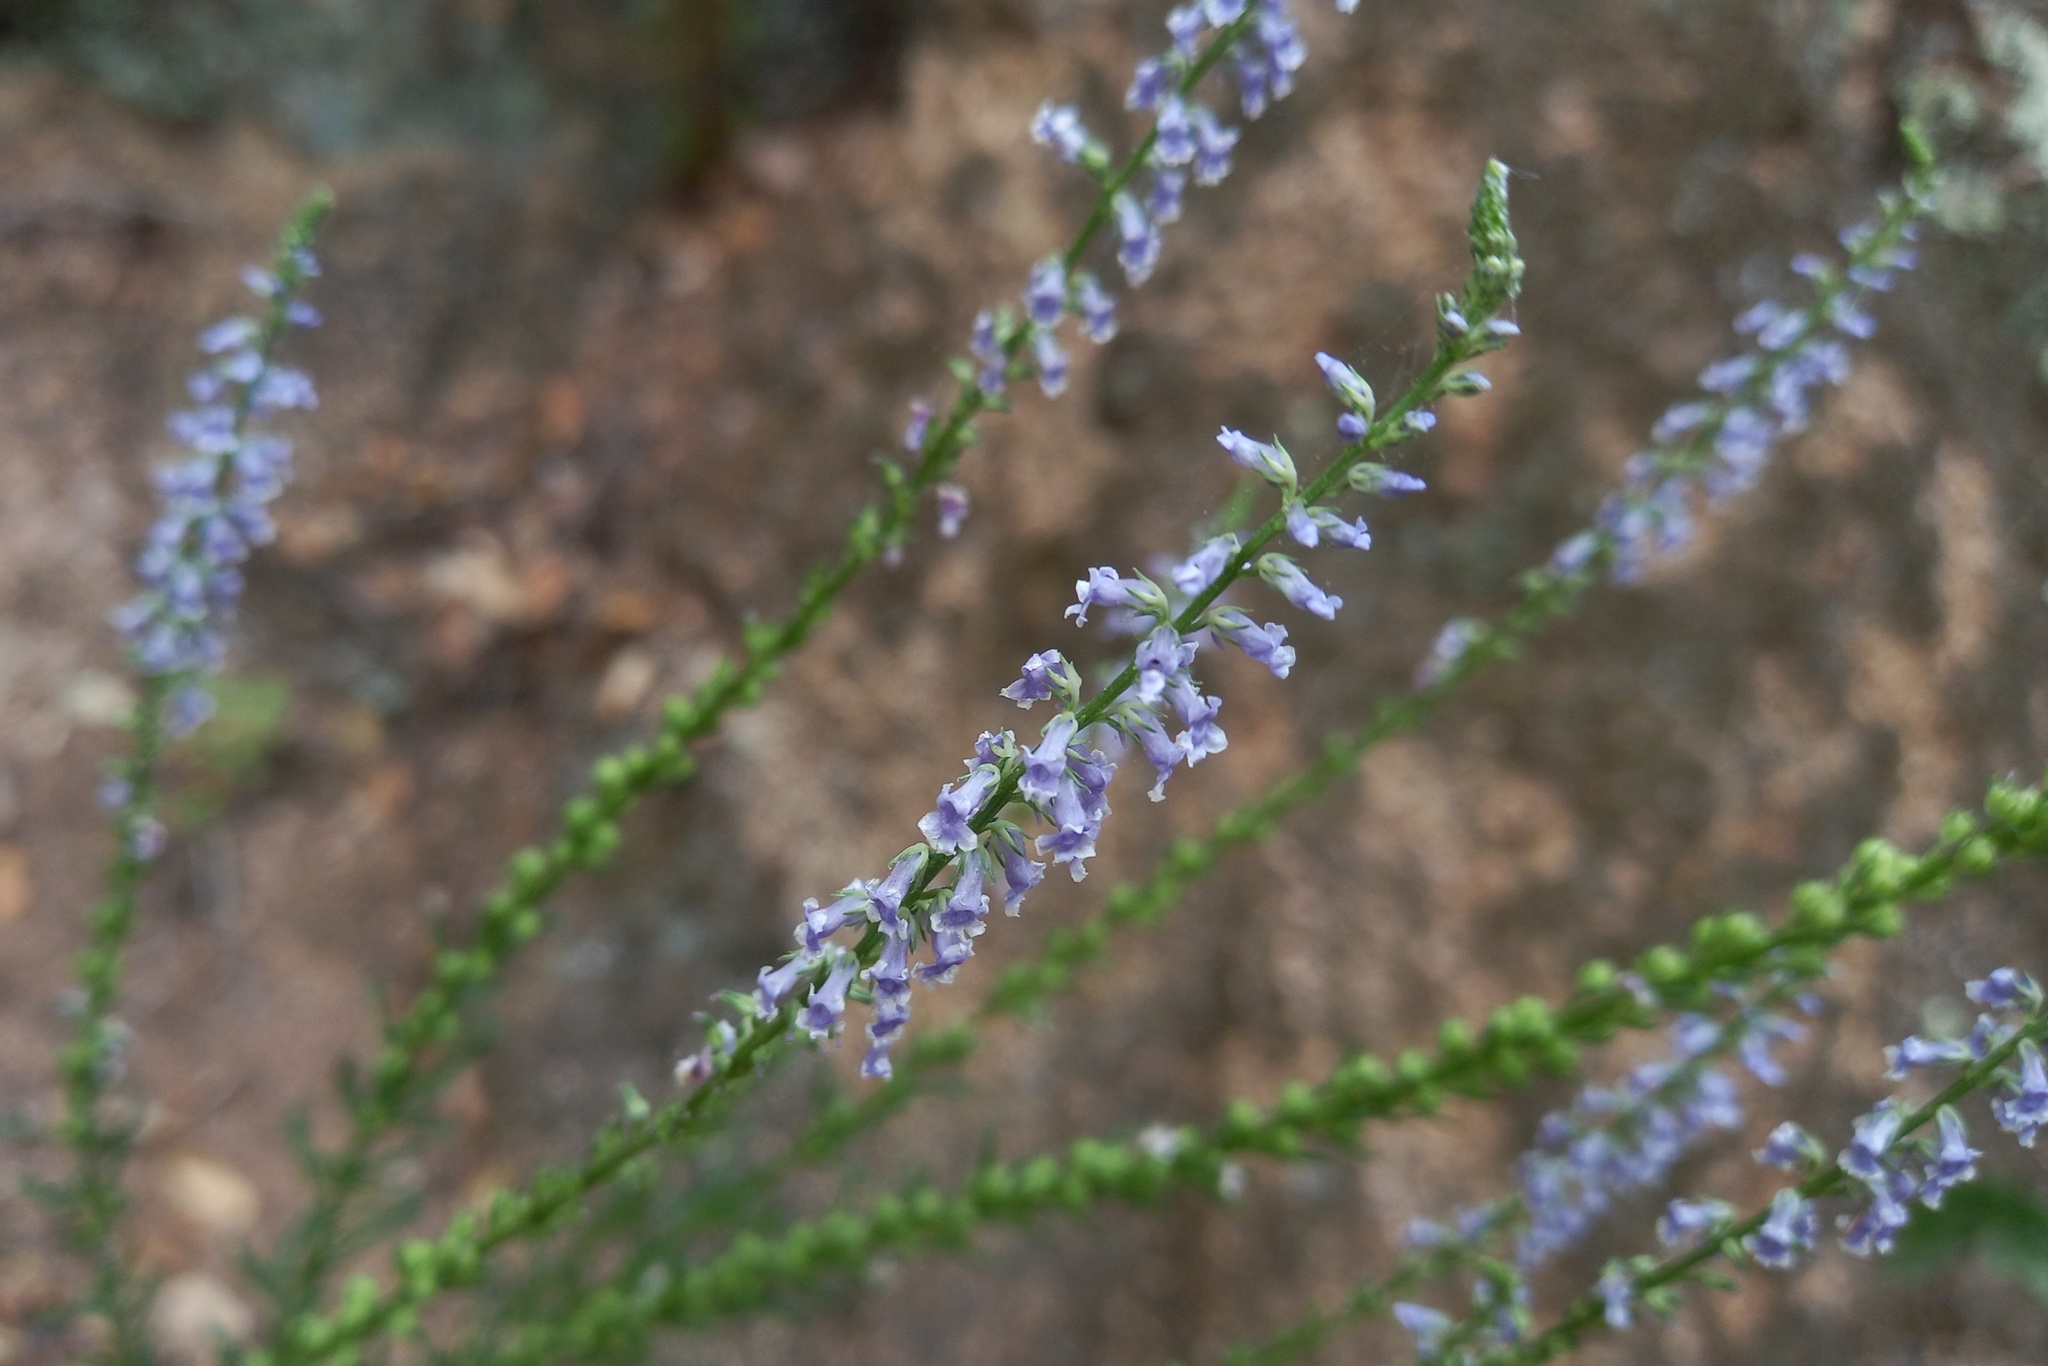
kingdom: Plantae
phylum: Tracheophyta
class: Magnoliopsida
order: Lamiales
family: Plantaginaceae
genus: Anarrhinum
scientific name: Anarrhinum bellidifolium
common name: Daisy-leaved toadflax
